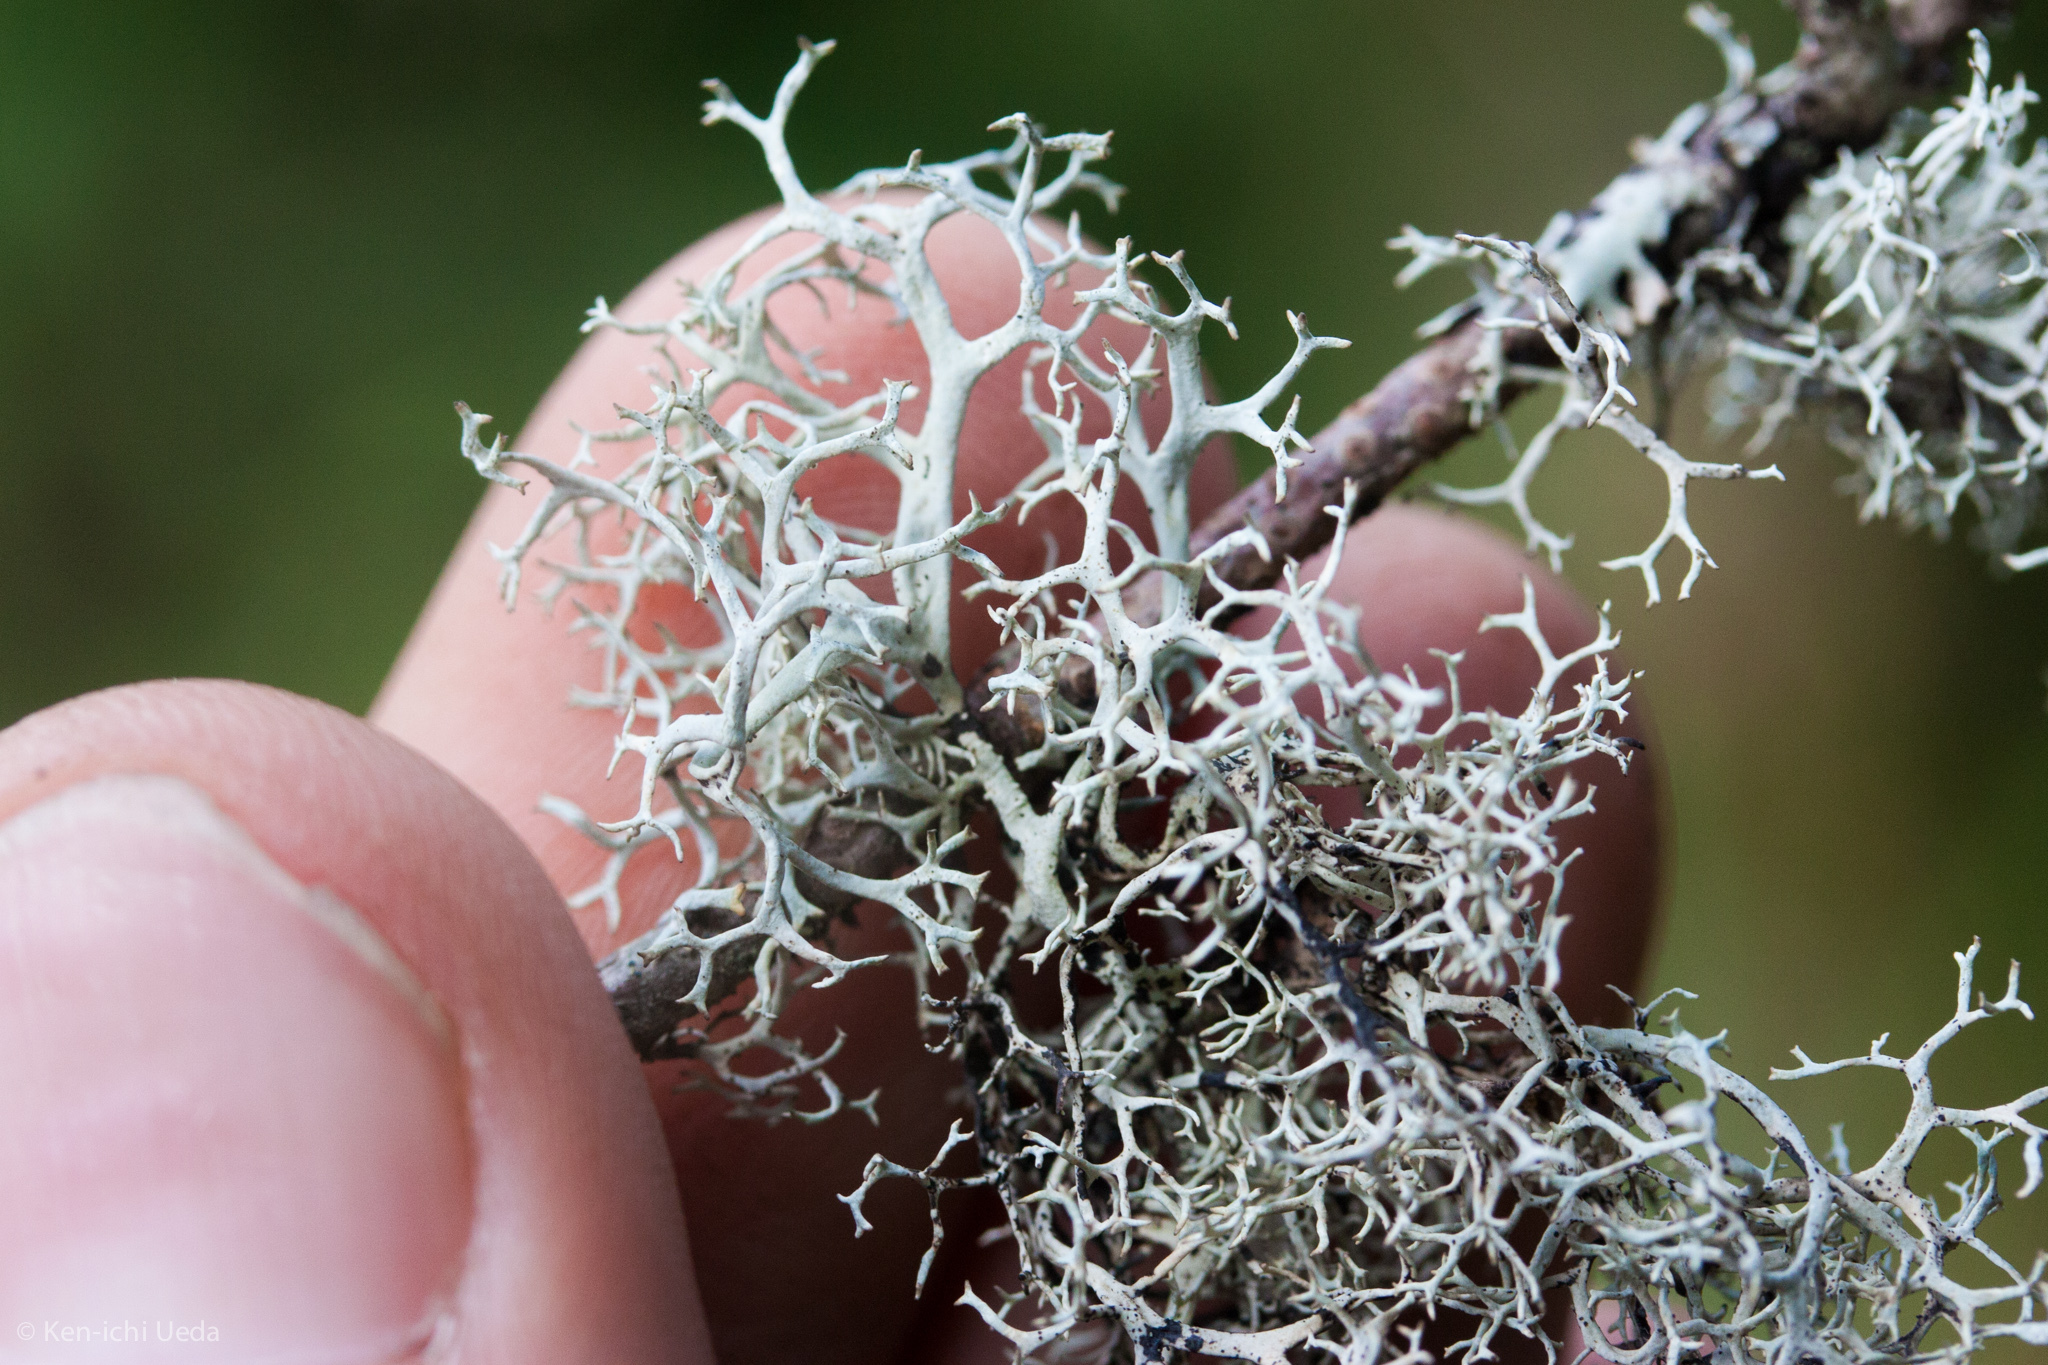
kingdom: Fungi
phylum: Ascomycota
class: Lecanoromycetes
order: Lecanorales
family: Parmeliaceae
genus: Pseudevernia
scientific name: Pseudevernia cladonia
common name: Light-and-dark lichen
